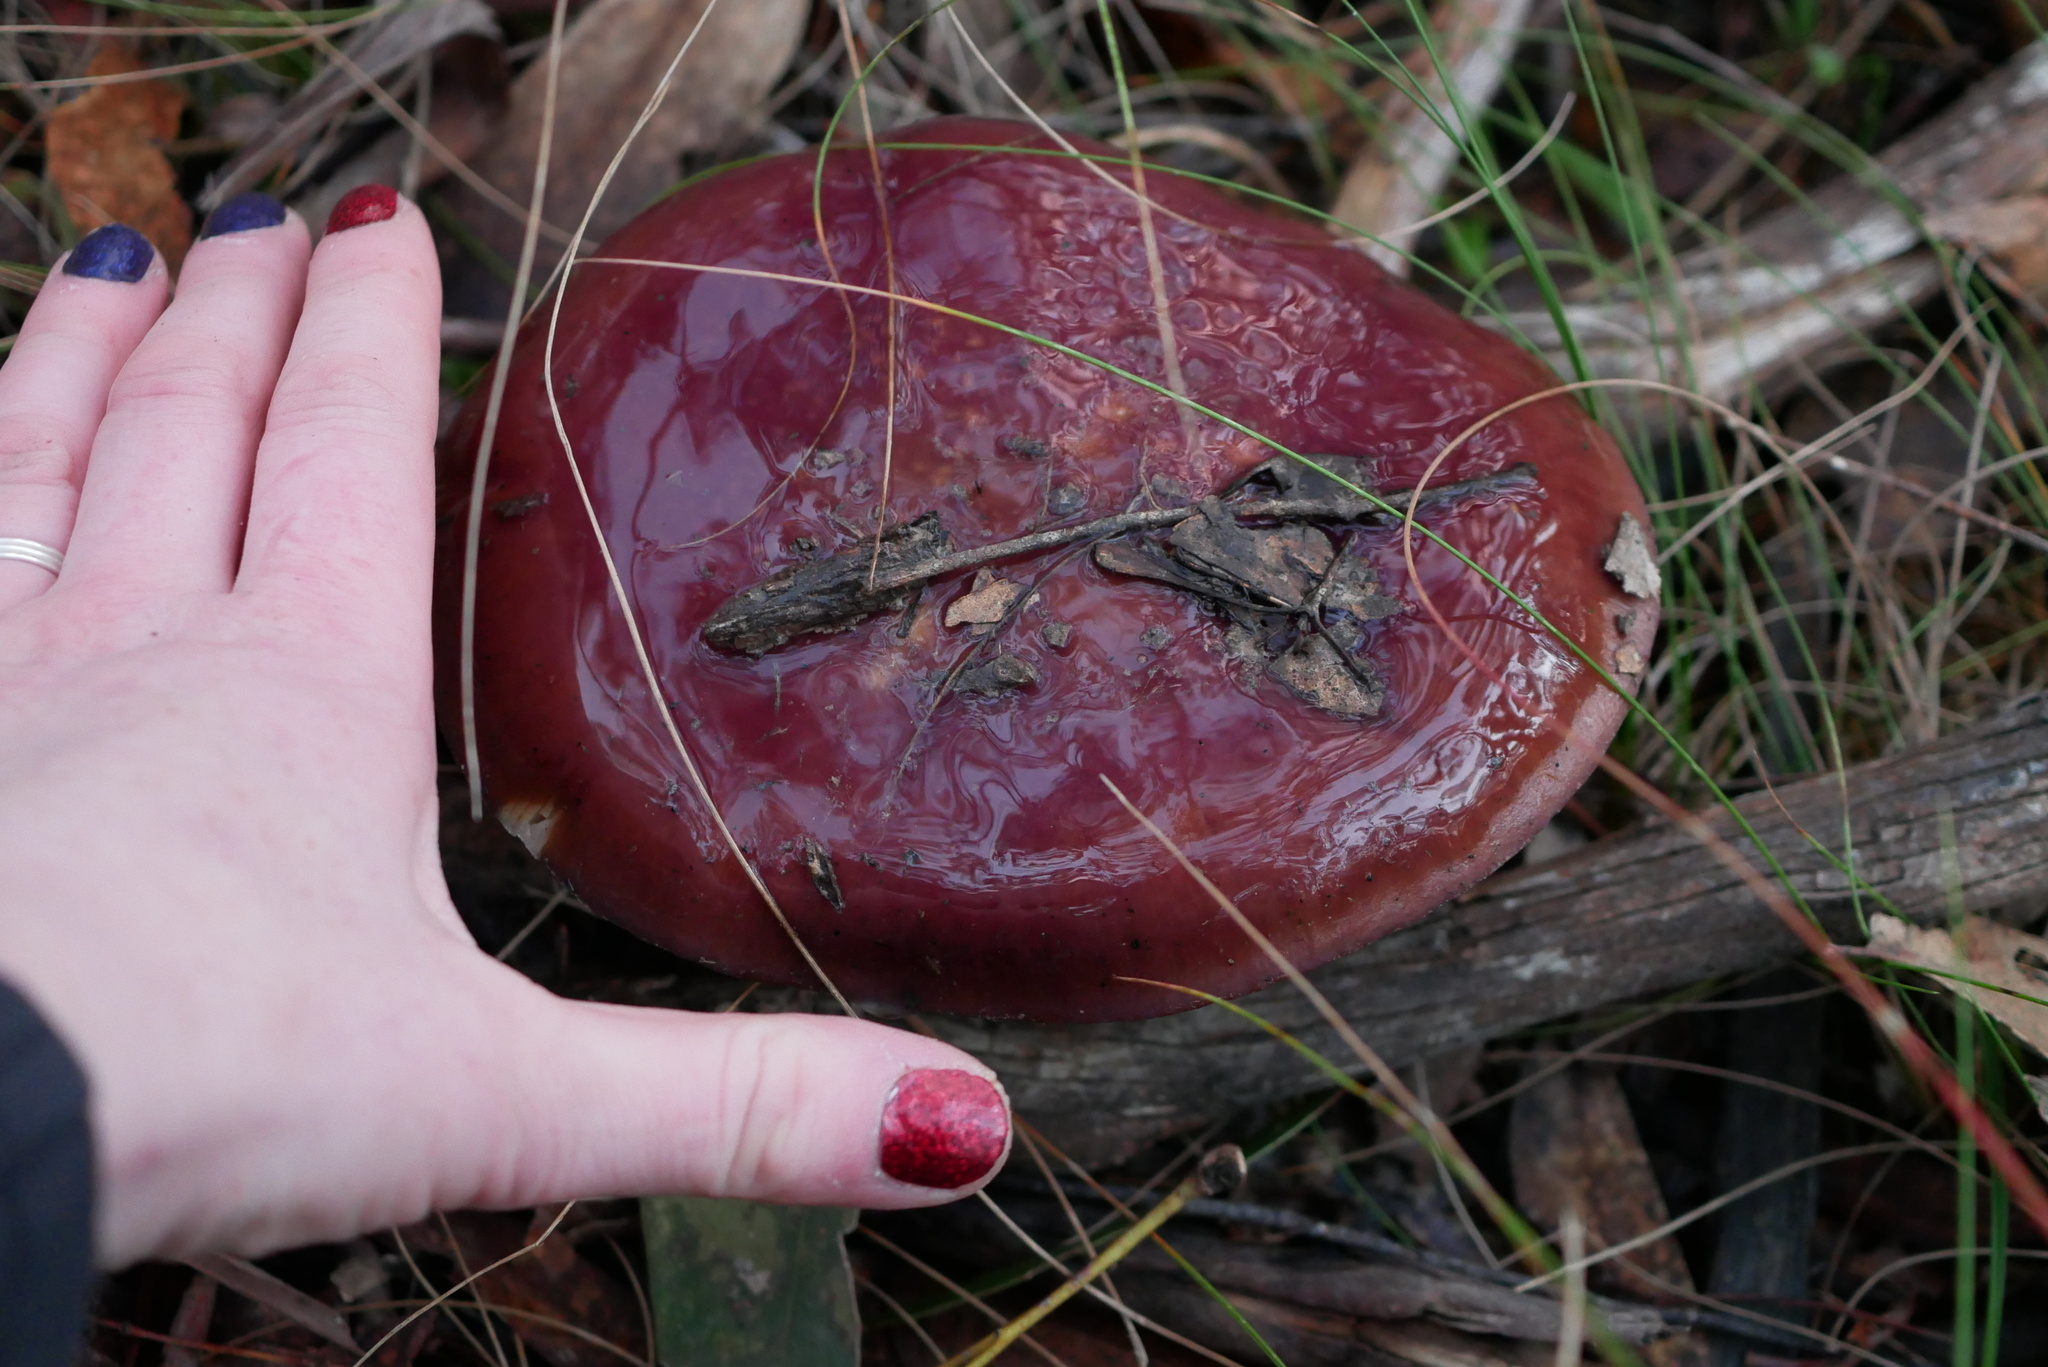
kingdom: Fungi
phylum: Basidiomycota
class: Agaricomycetes
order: Agaricales
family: Cortinariaceae
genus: Cortinarius
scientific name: Cortinarius archeri
